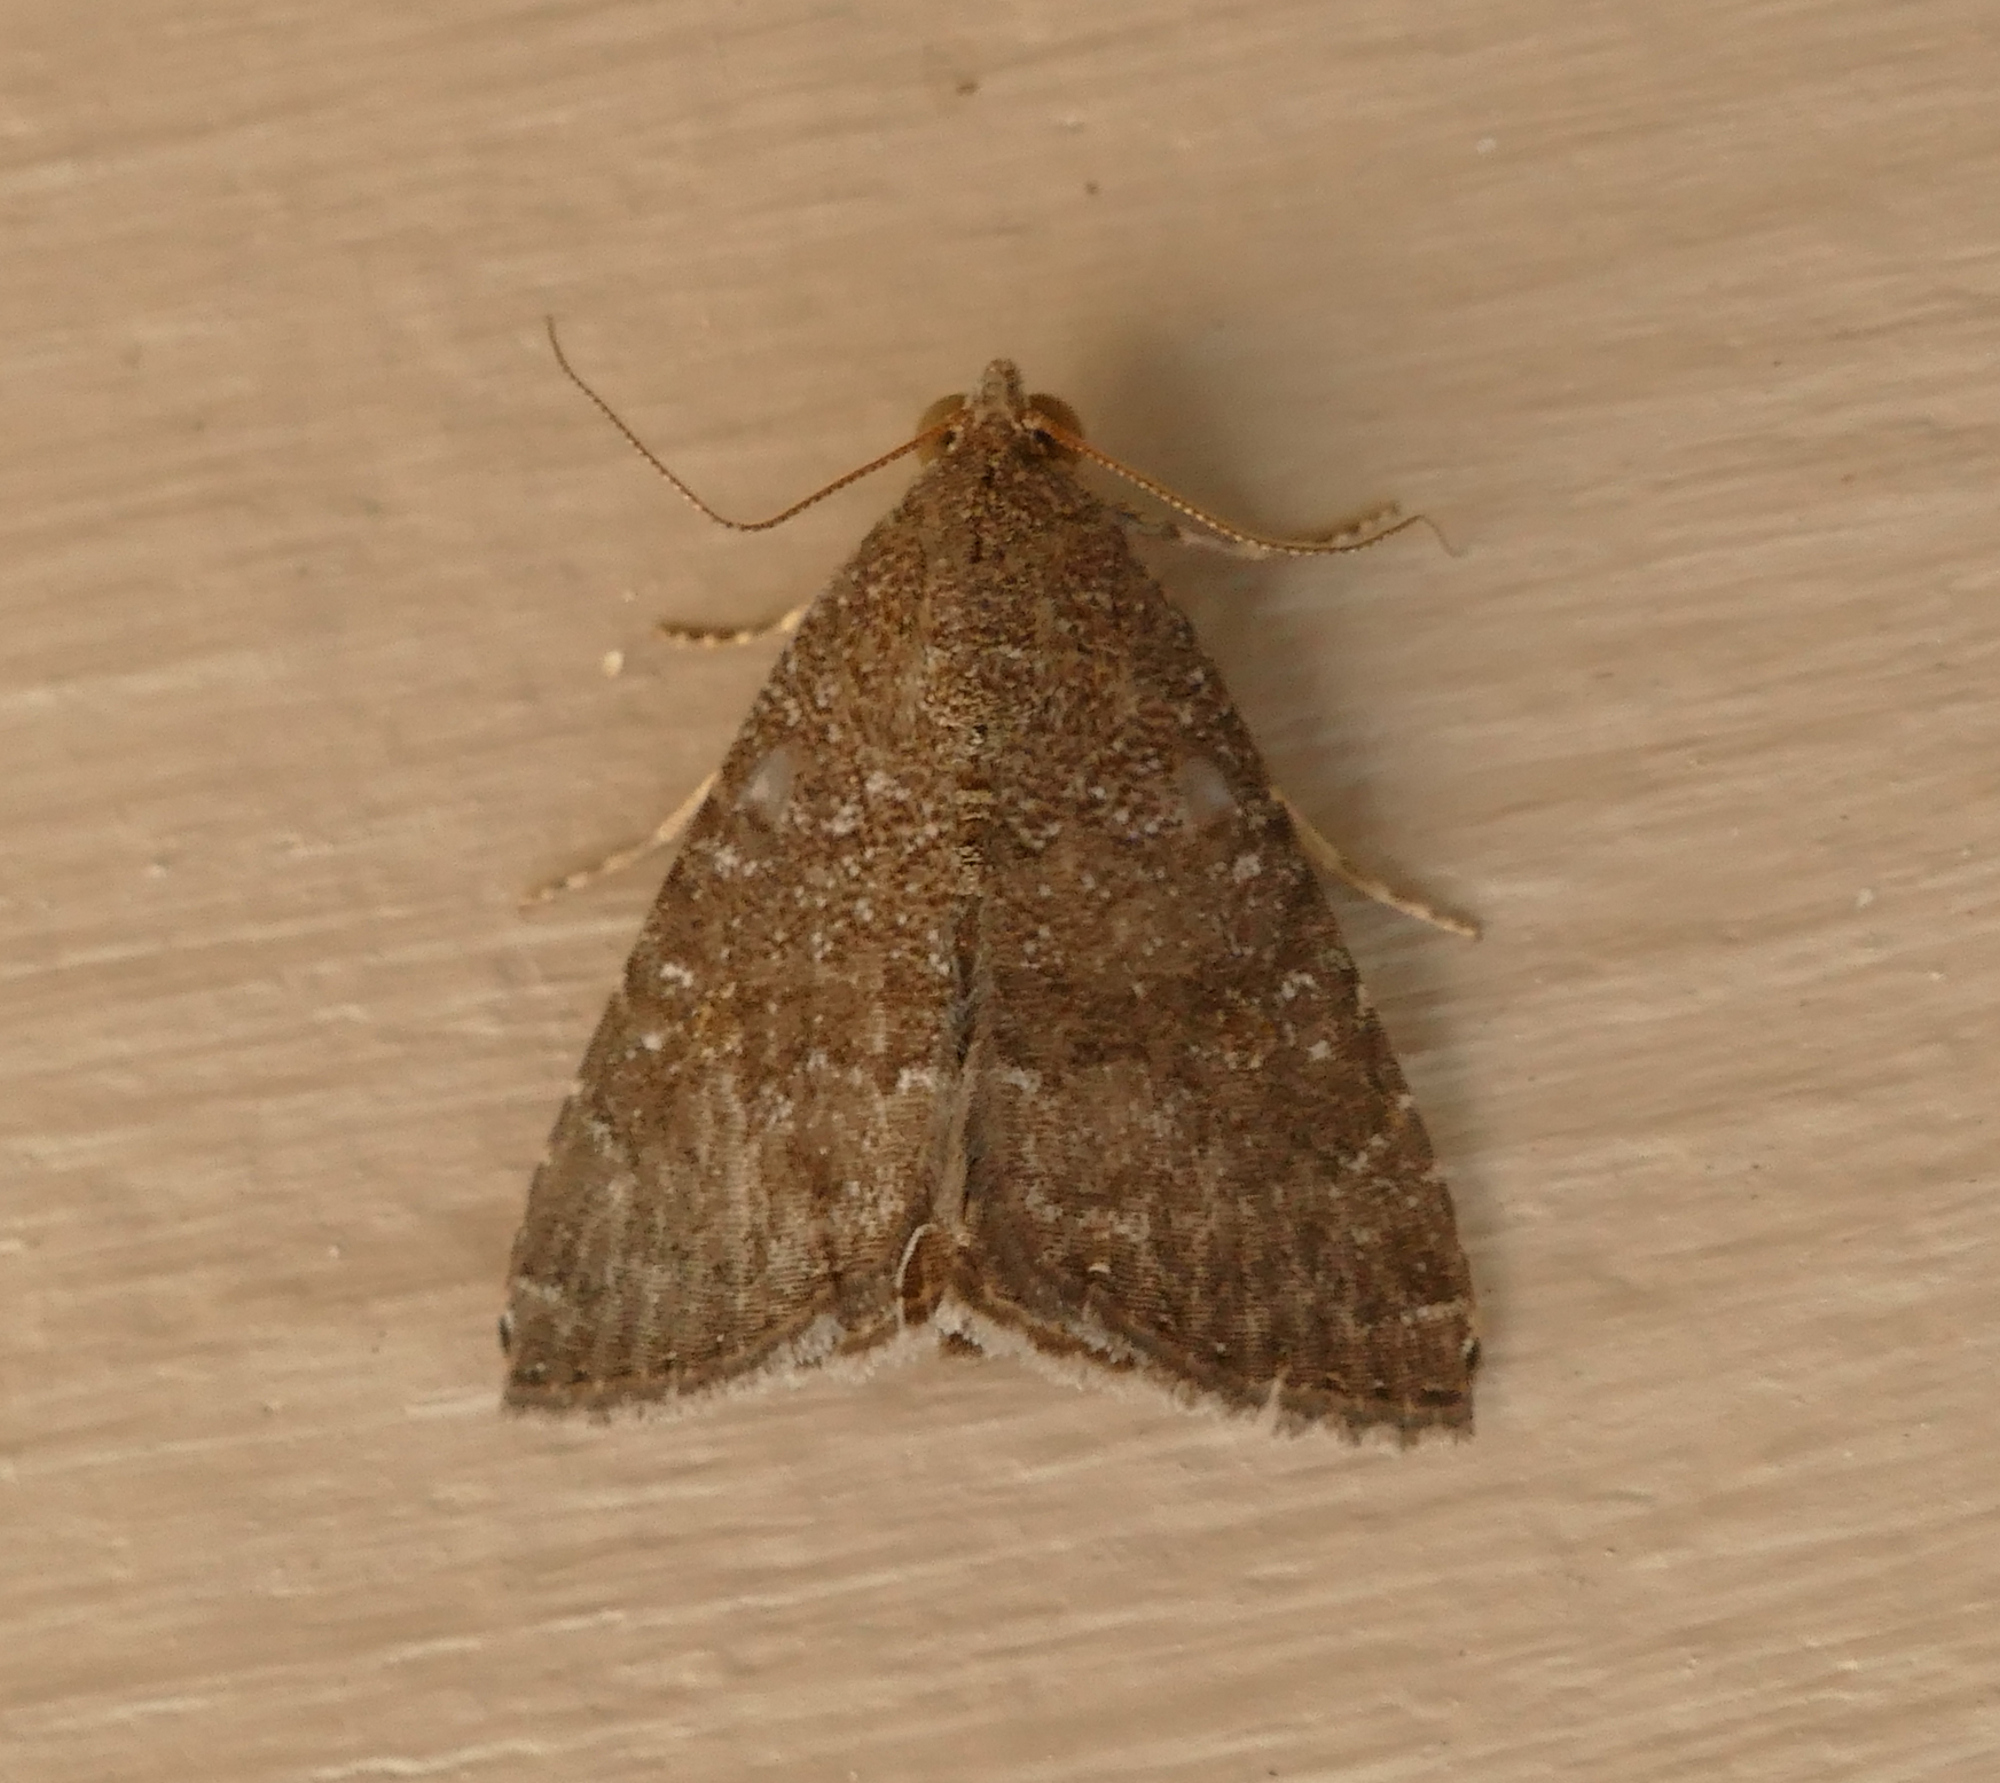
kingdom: Animalia
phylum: Arthropoda
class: Insecta
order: Lepidoptera
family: Noctuidae
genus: Amyna
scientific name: Amyna stricta
